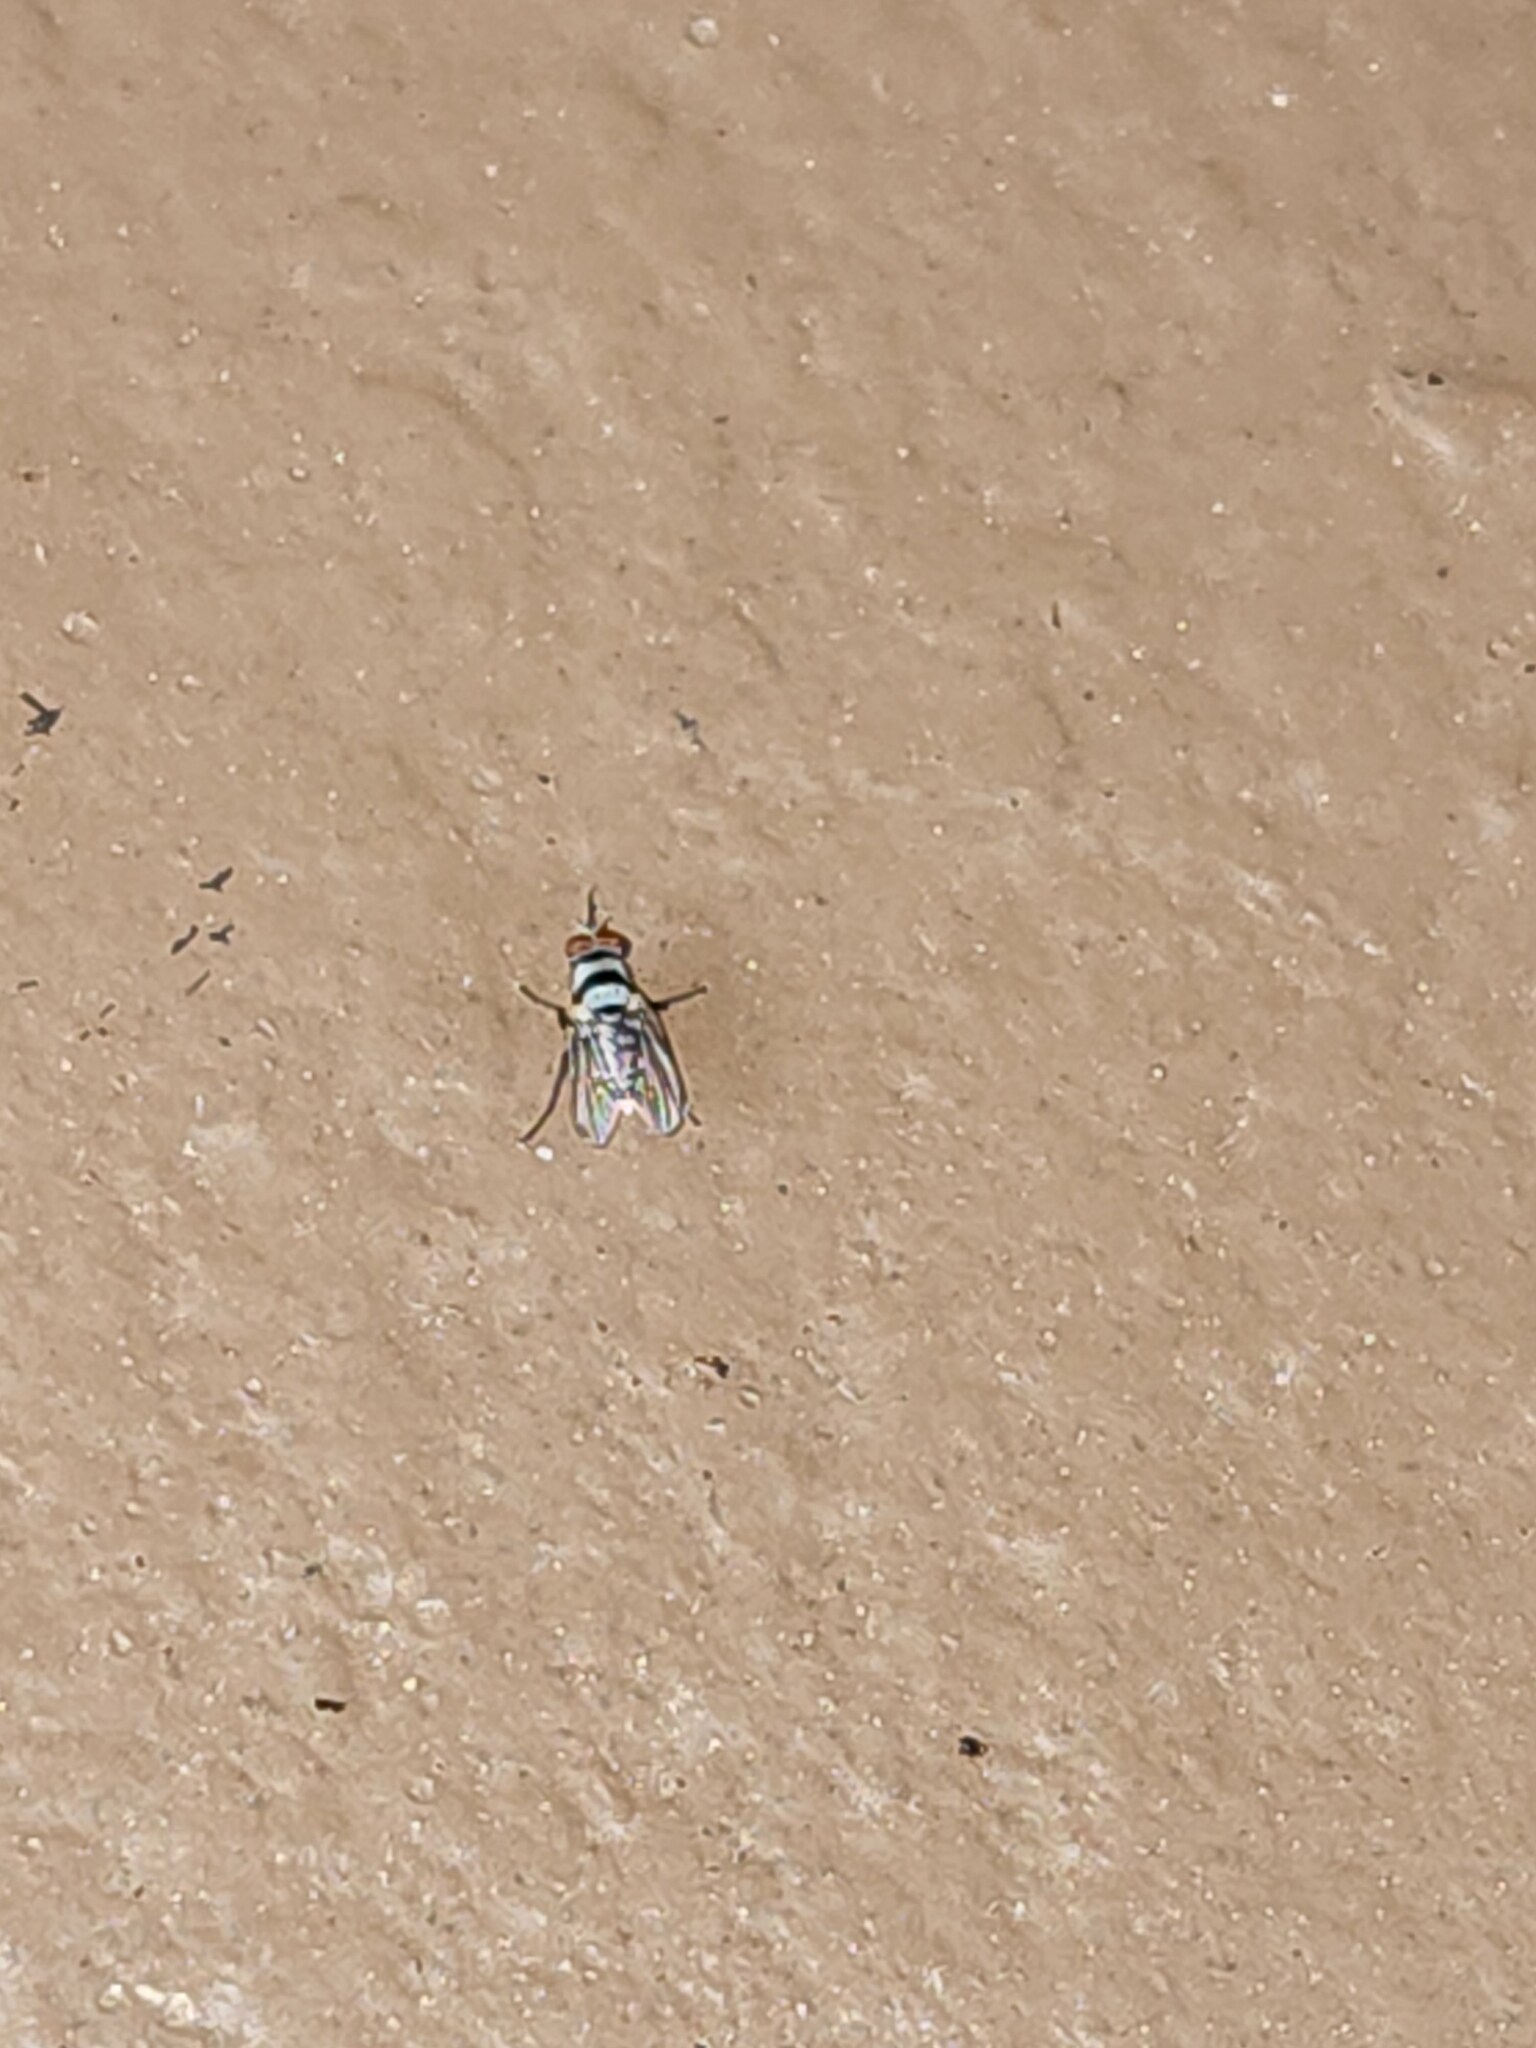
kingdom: Animalia
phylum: Arthropoda
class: Insecta
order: Diptera
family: Anthomyiidae
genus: Anthomyia
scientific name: Anthomyia illocata
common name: Fly
